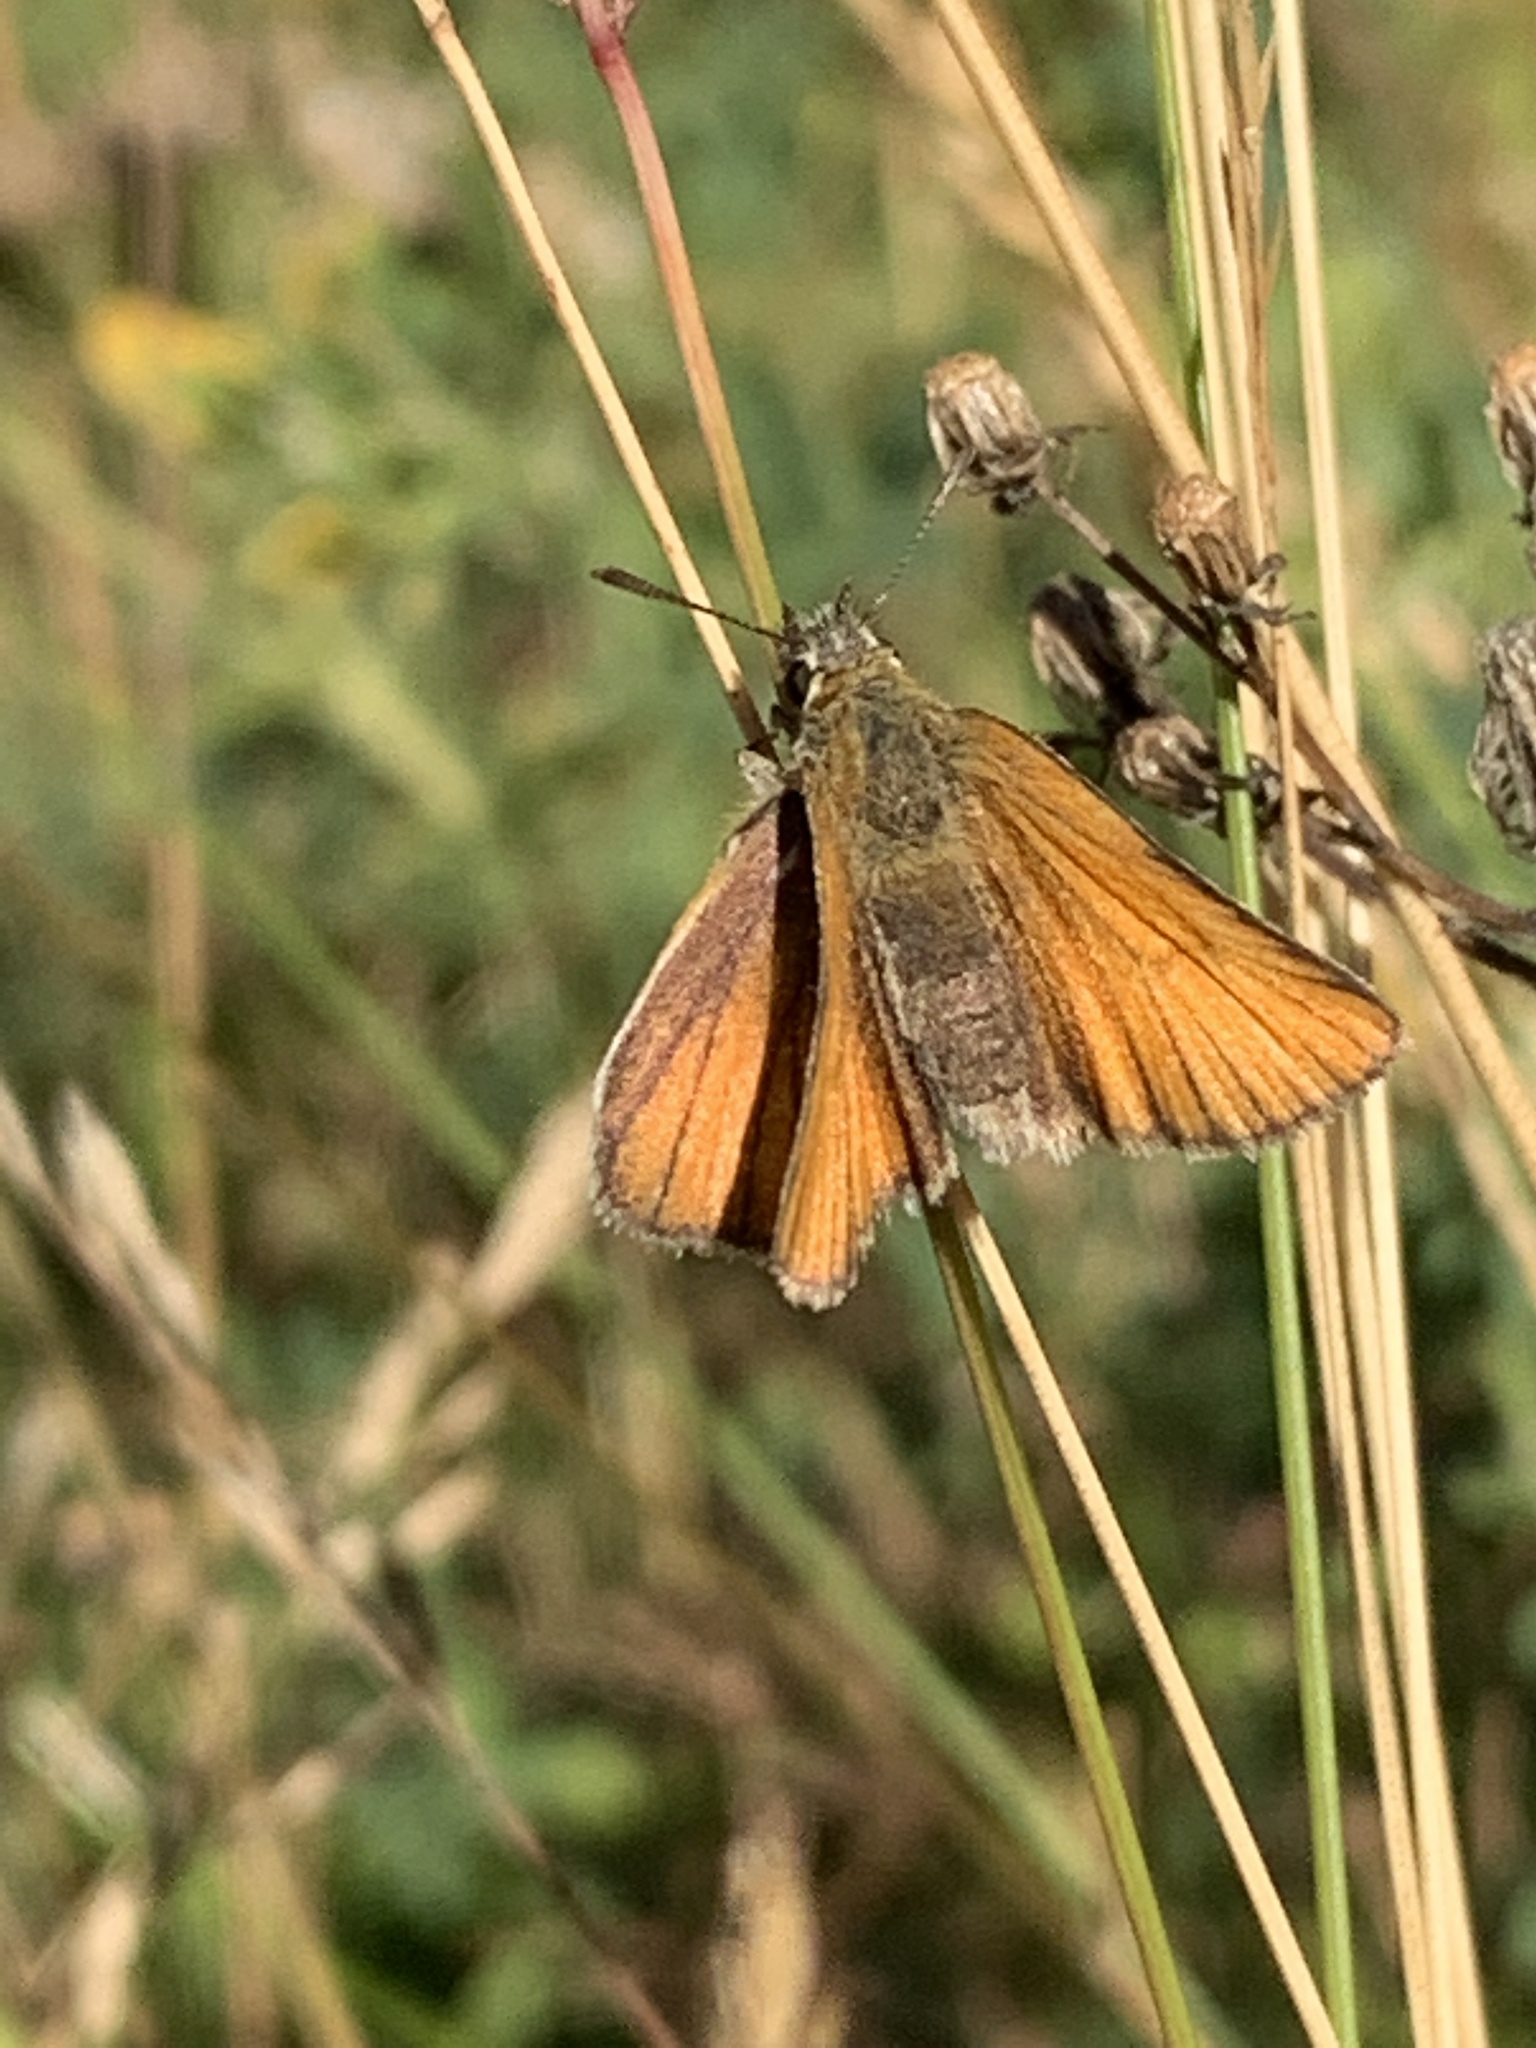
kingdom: Animalia
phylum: Arthropoda
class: Insecta
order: Lepidoptera
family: Hesperiidae
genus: Thymelicus
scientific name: Thymelicus lineola
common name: Essex skipper
